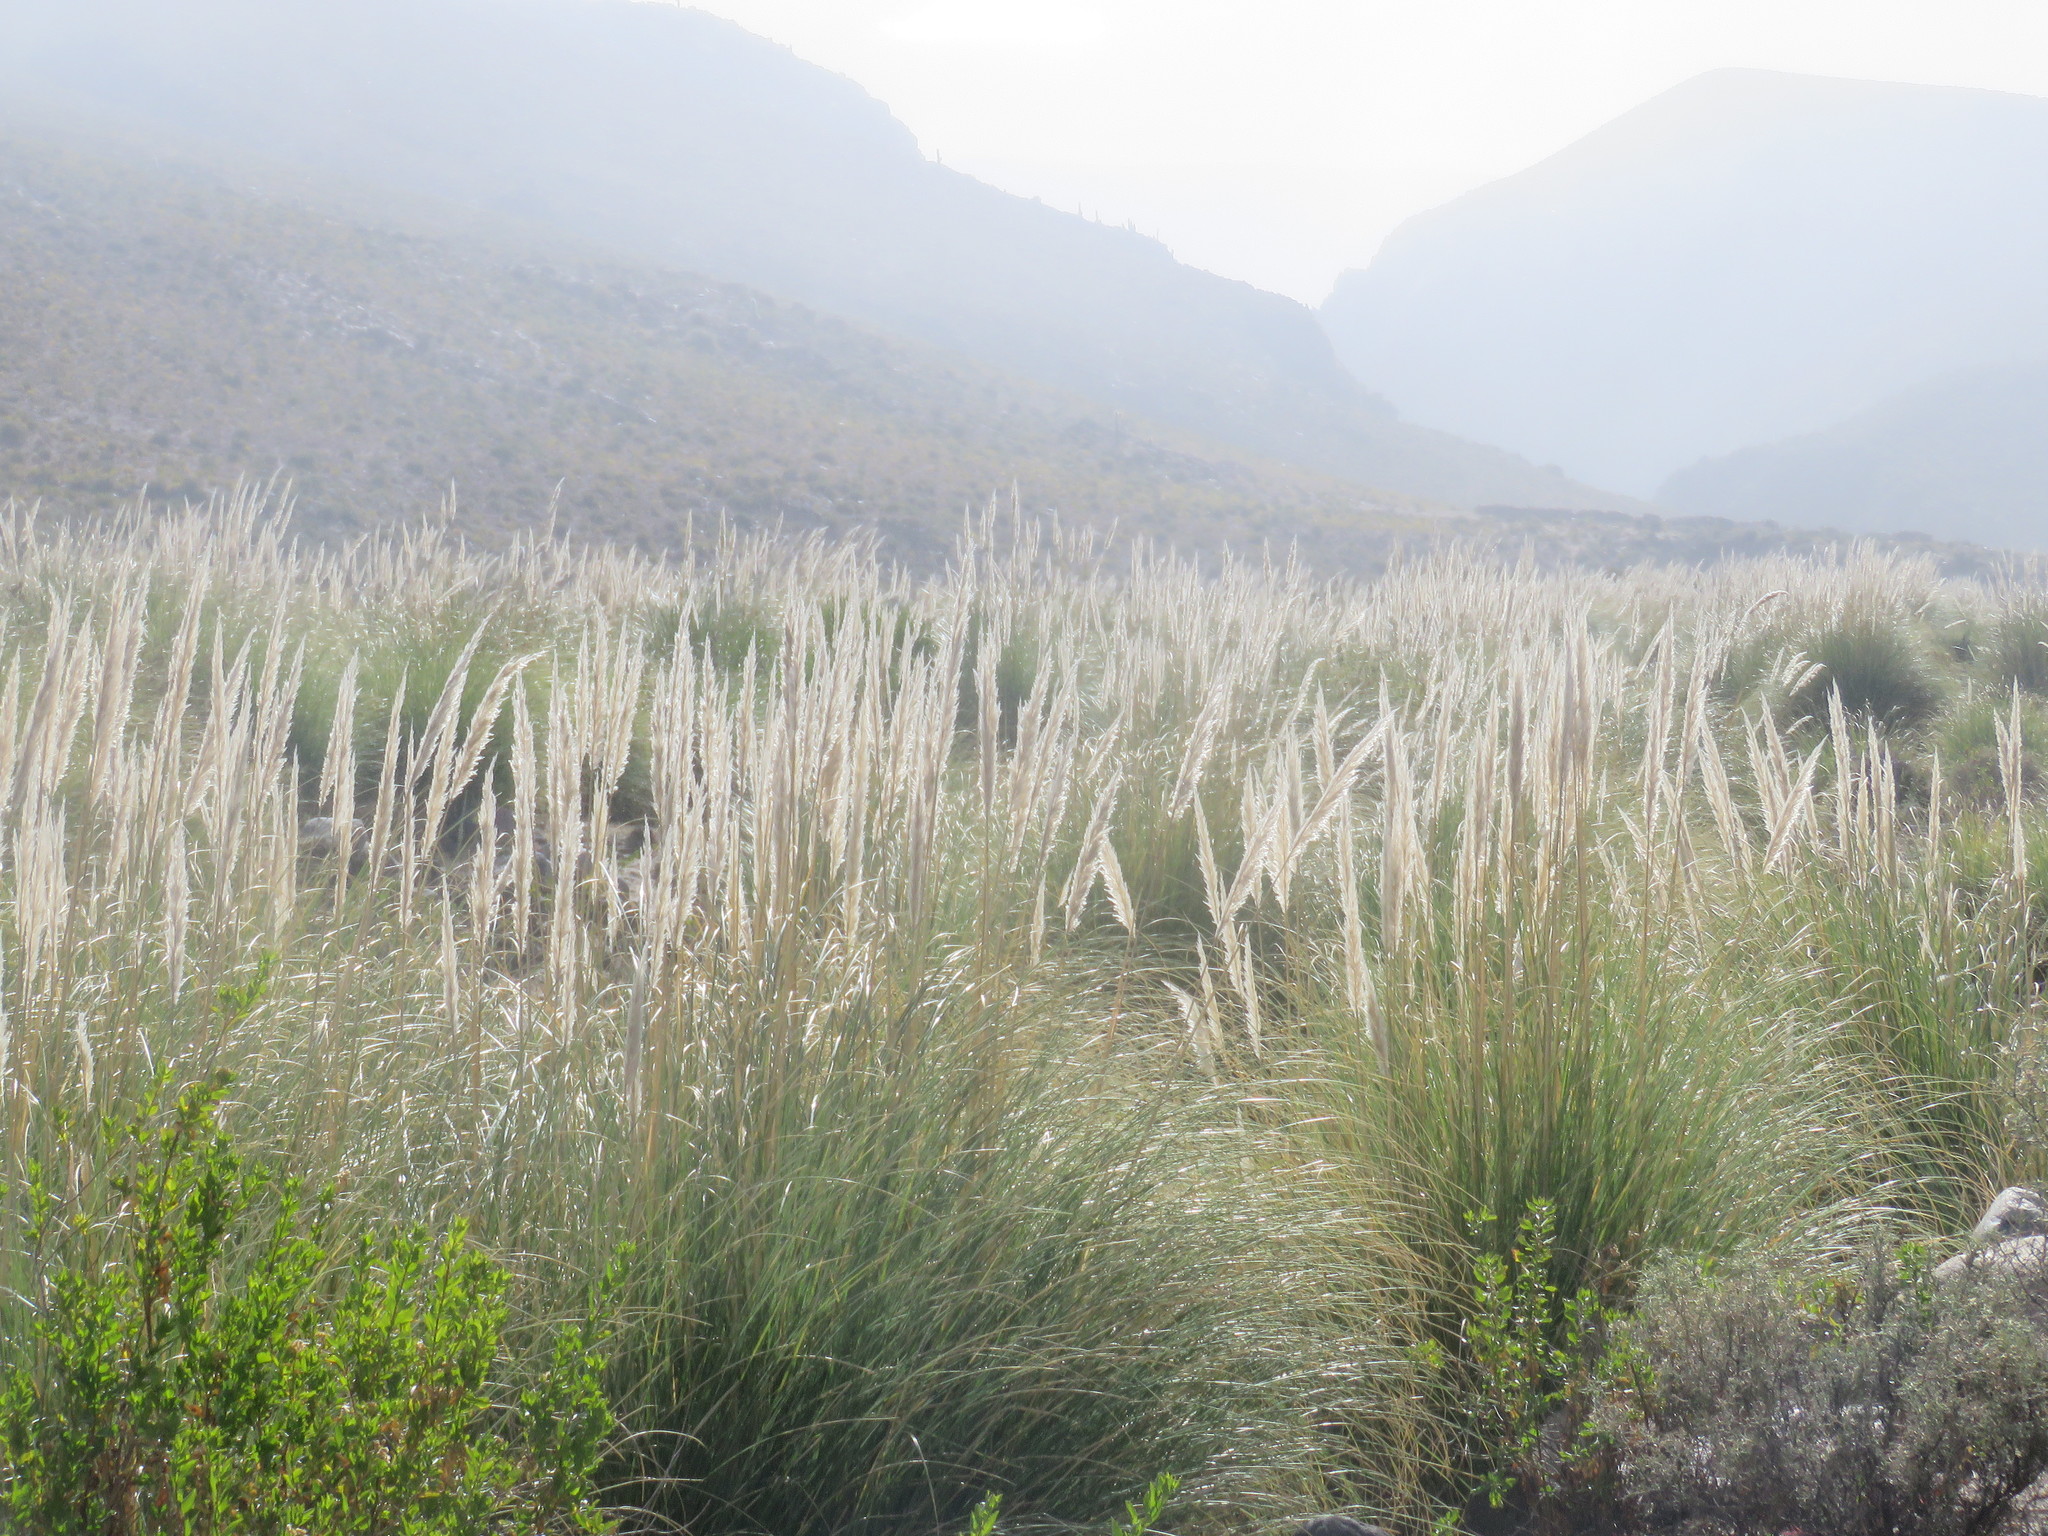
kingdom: Plantae
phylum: Tracheophyta
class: Liliopsida
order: Poales
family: Poaceae
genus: Cortaderia
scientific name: Cortaderia selloana
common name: Uruguayan pampas grass
